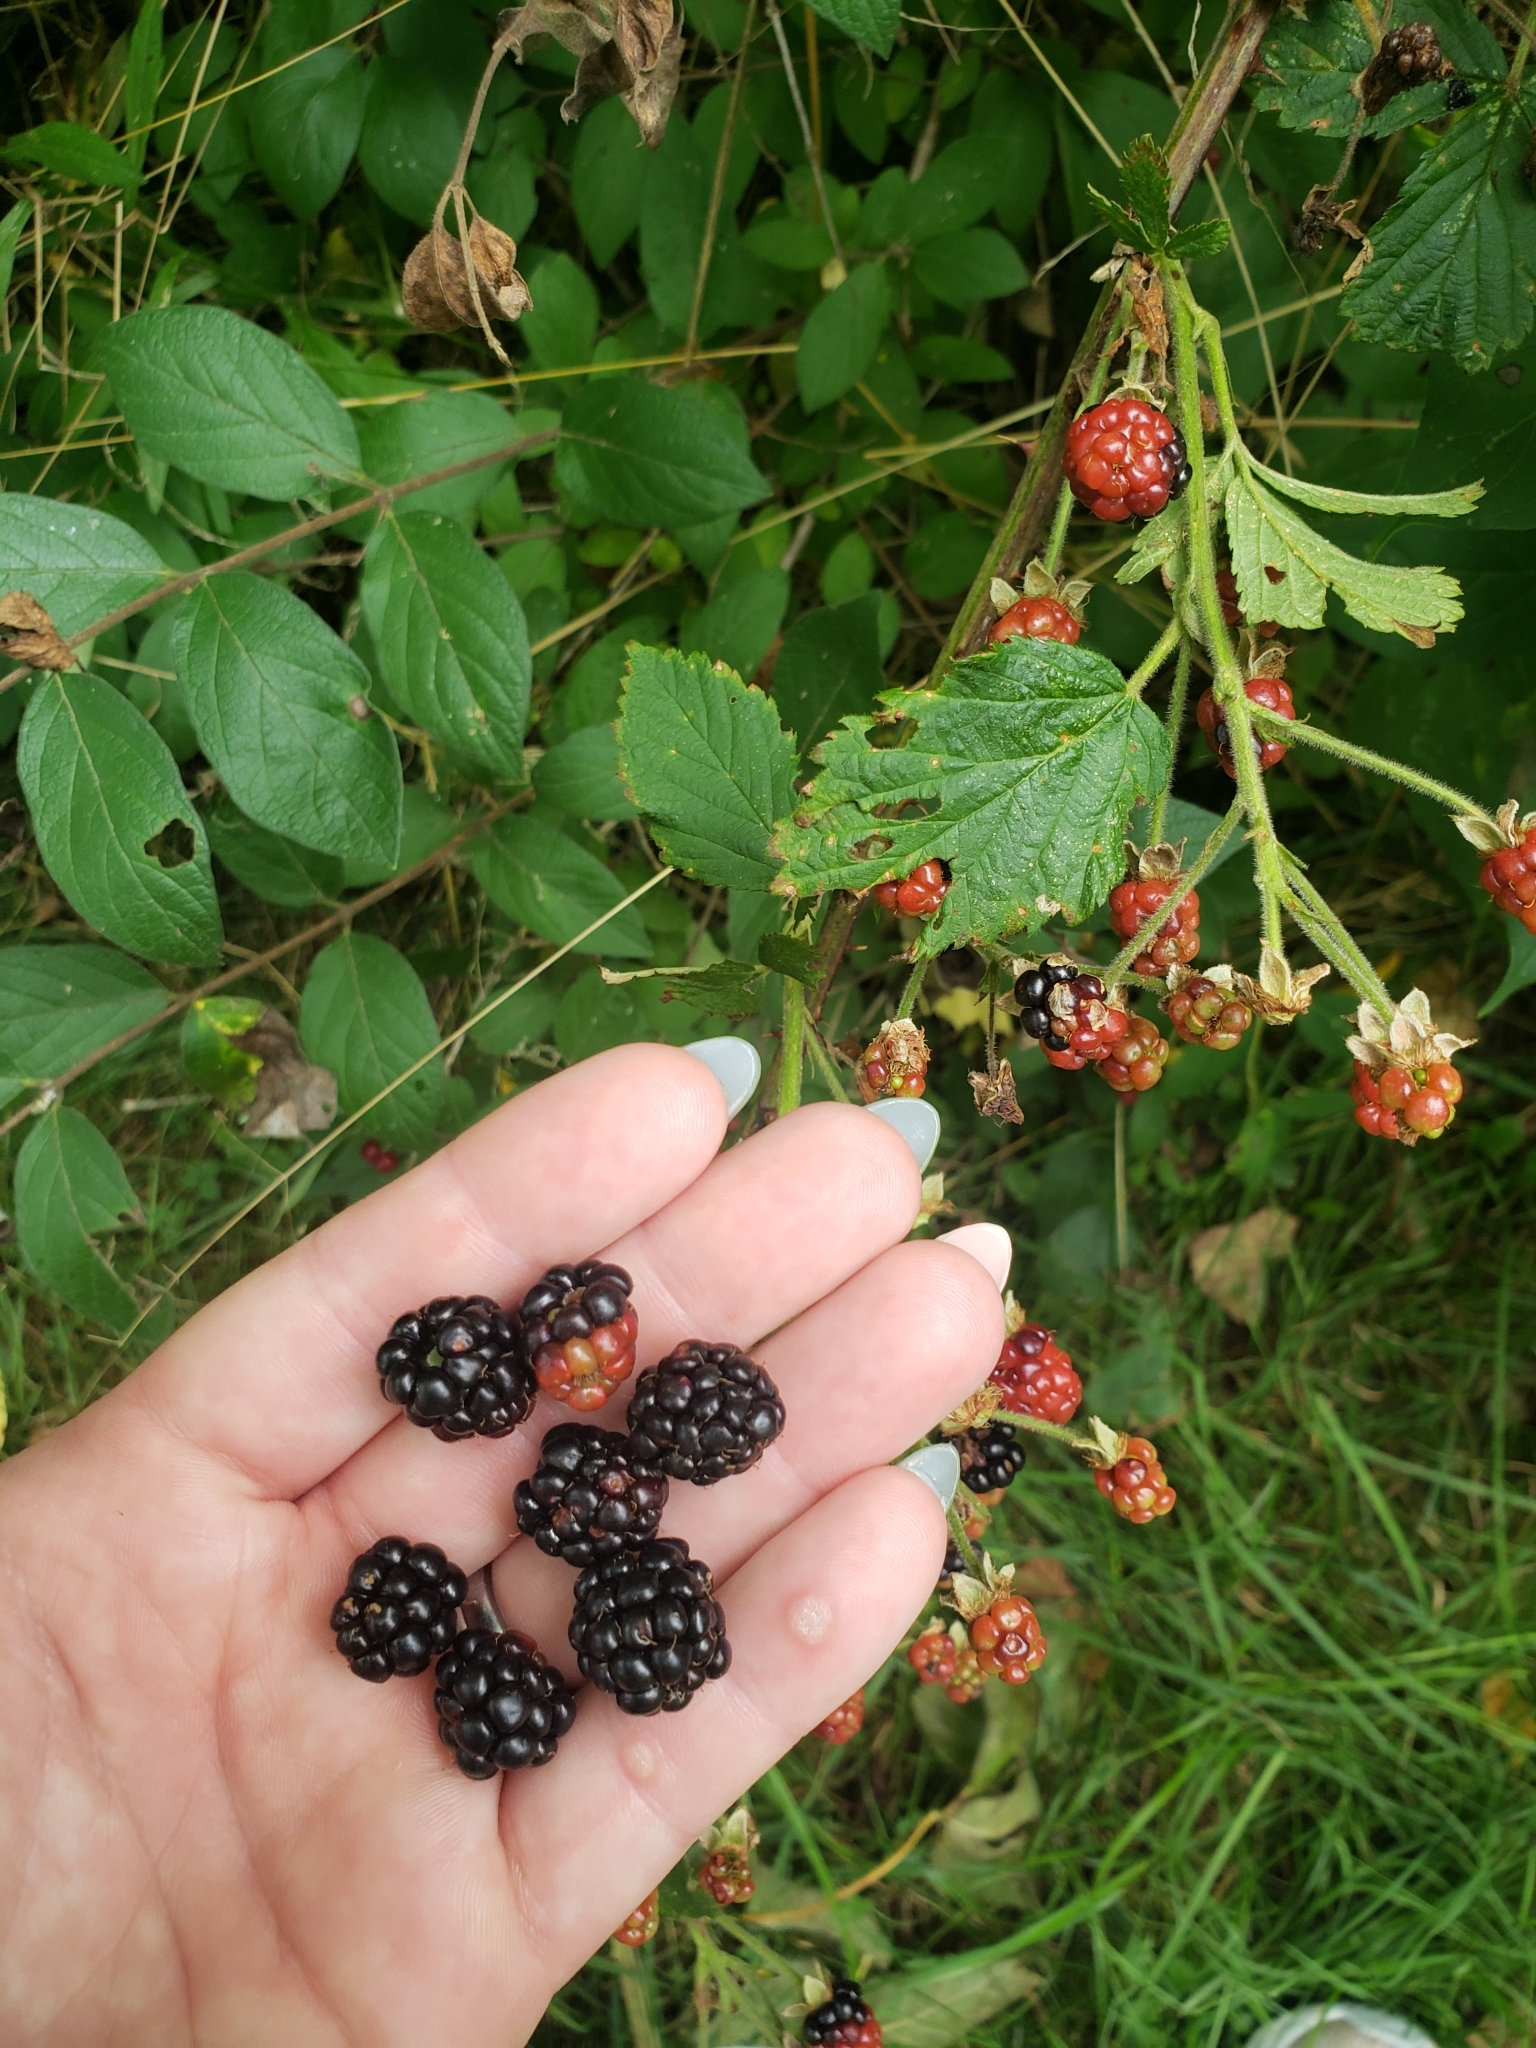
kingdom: Plantae
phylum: Tracheophyta
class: Magnoliopsida
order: Rosales
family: Rosaceae
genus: Rubus
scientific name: Rubus allegheniensis
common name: Allegheny blackberry
